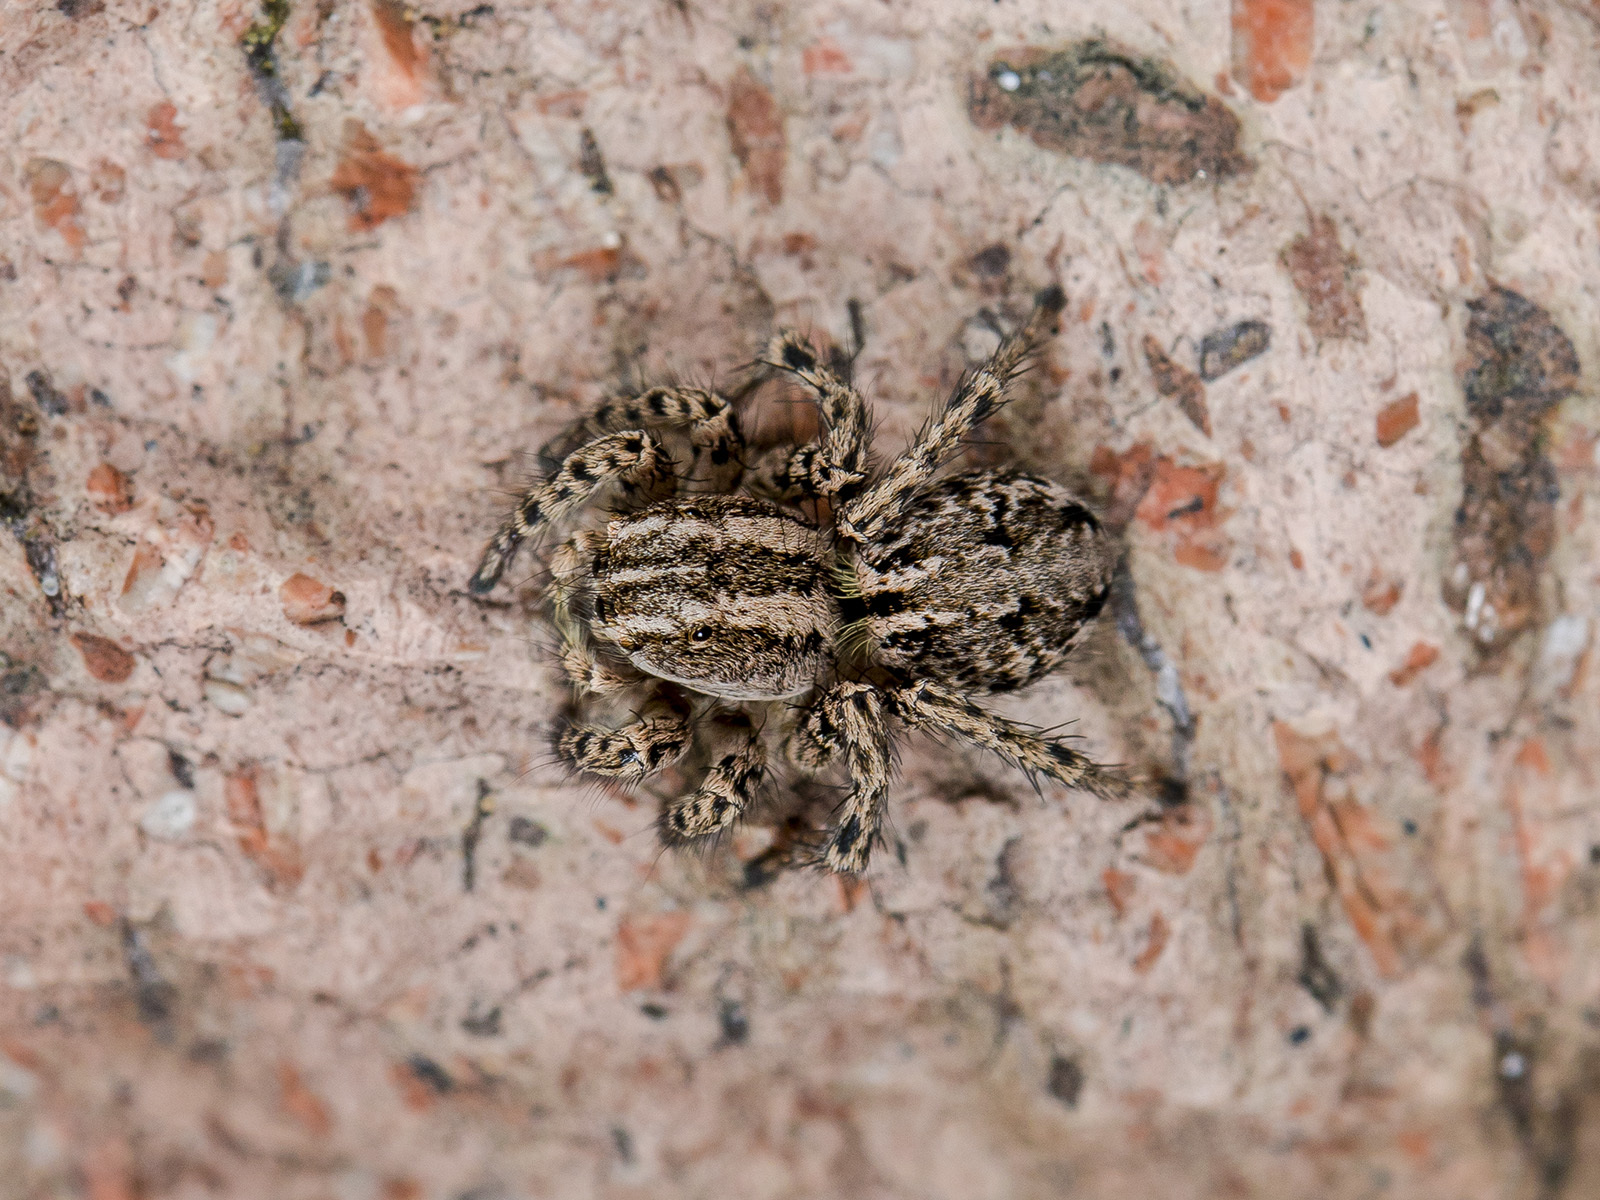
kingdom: Animalia
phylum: Arthropoda
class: Arachnida
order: Araneae
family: Salticidae
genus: Aelurillus
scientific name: Aelurillus m-nigrum
